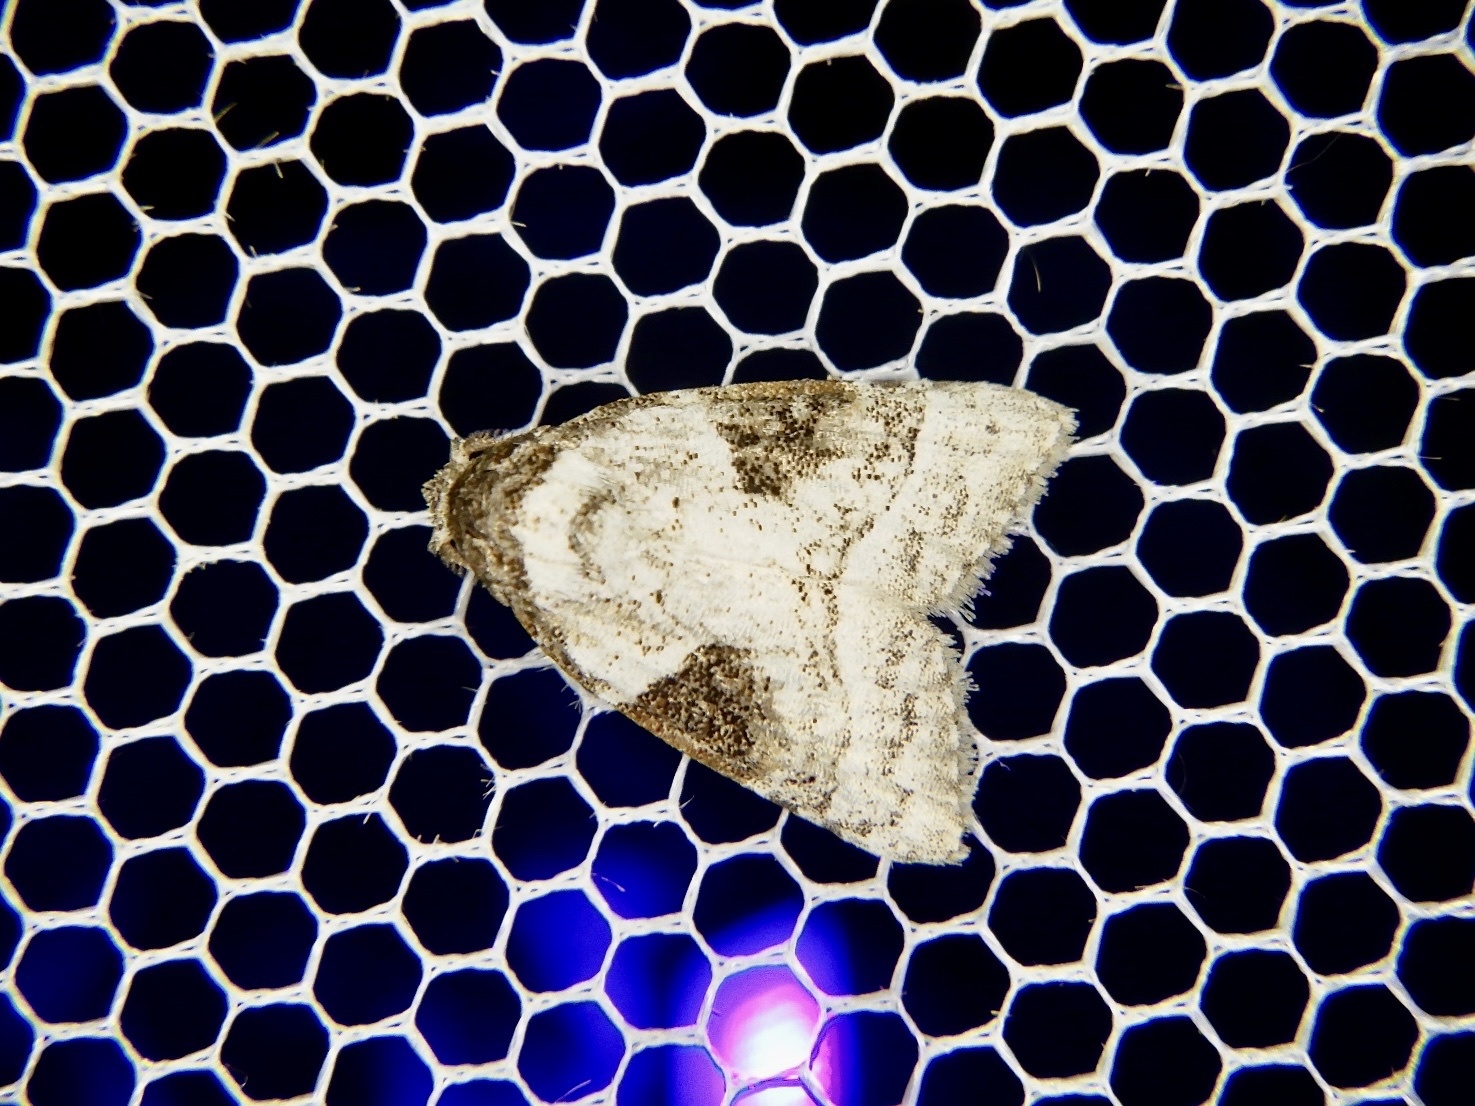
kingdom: Animalia
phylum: Arthropoda
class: Insecta
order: Lepidoptera
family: Nolidae
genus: Meganola
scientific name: Meganola triangulalis
